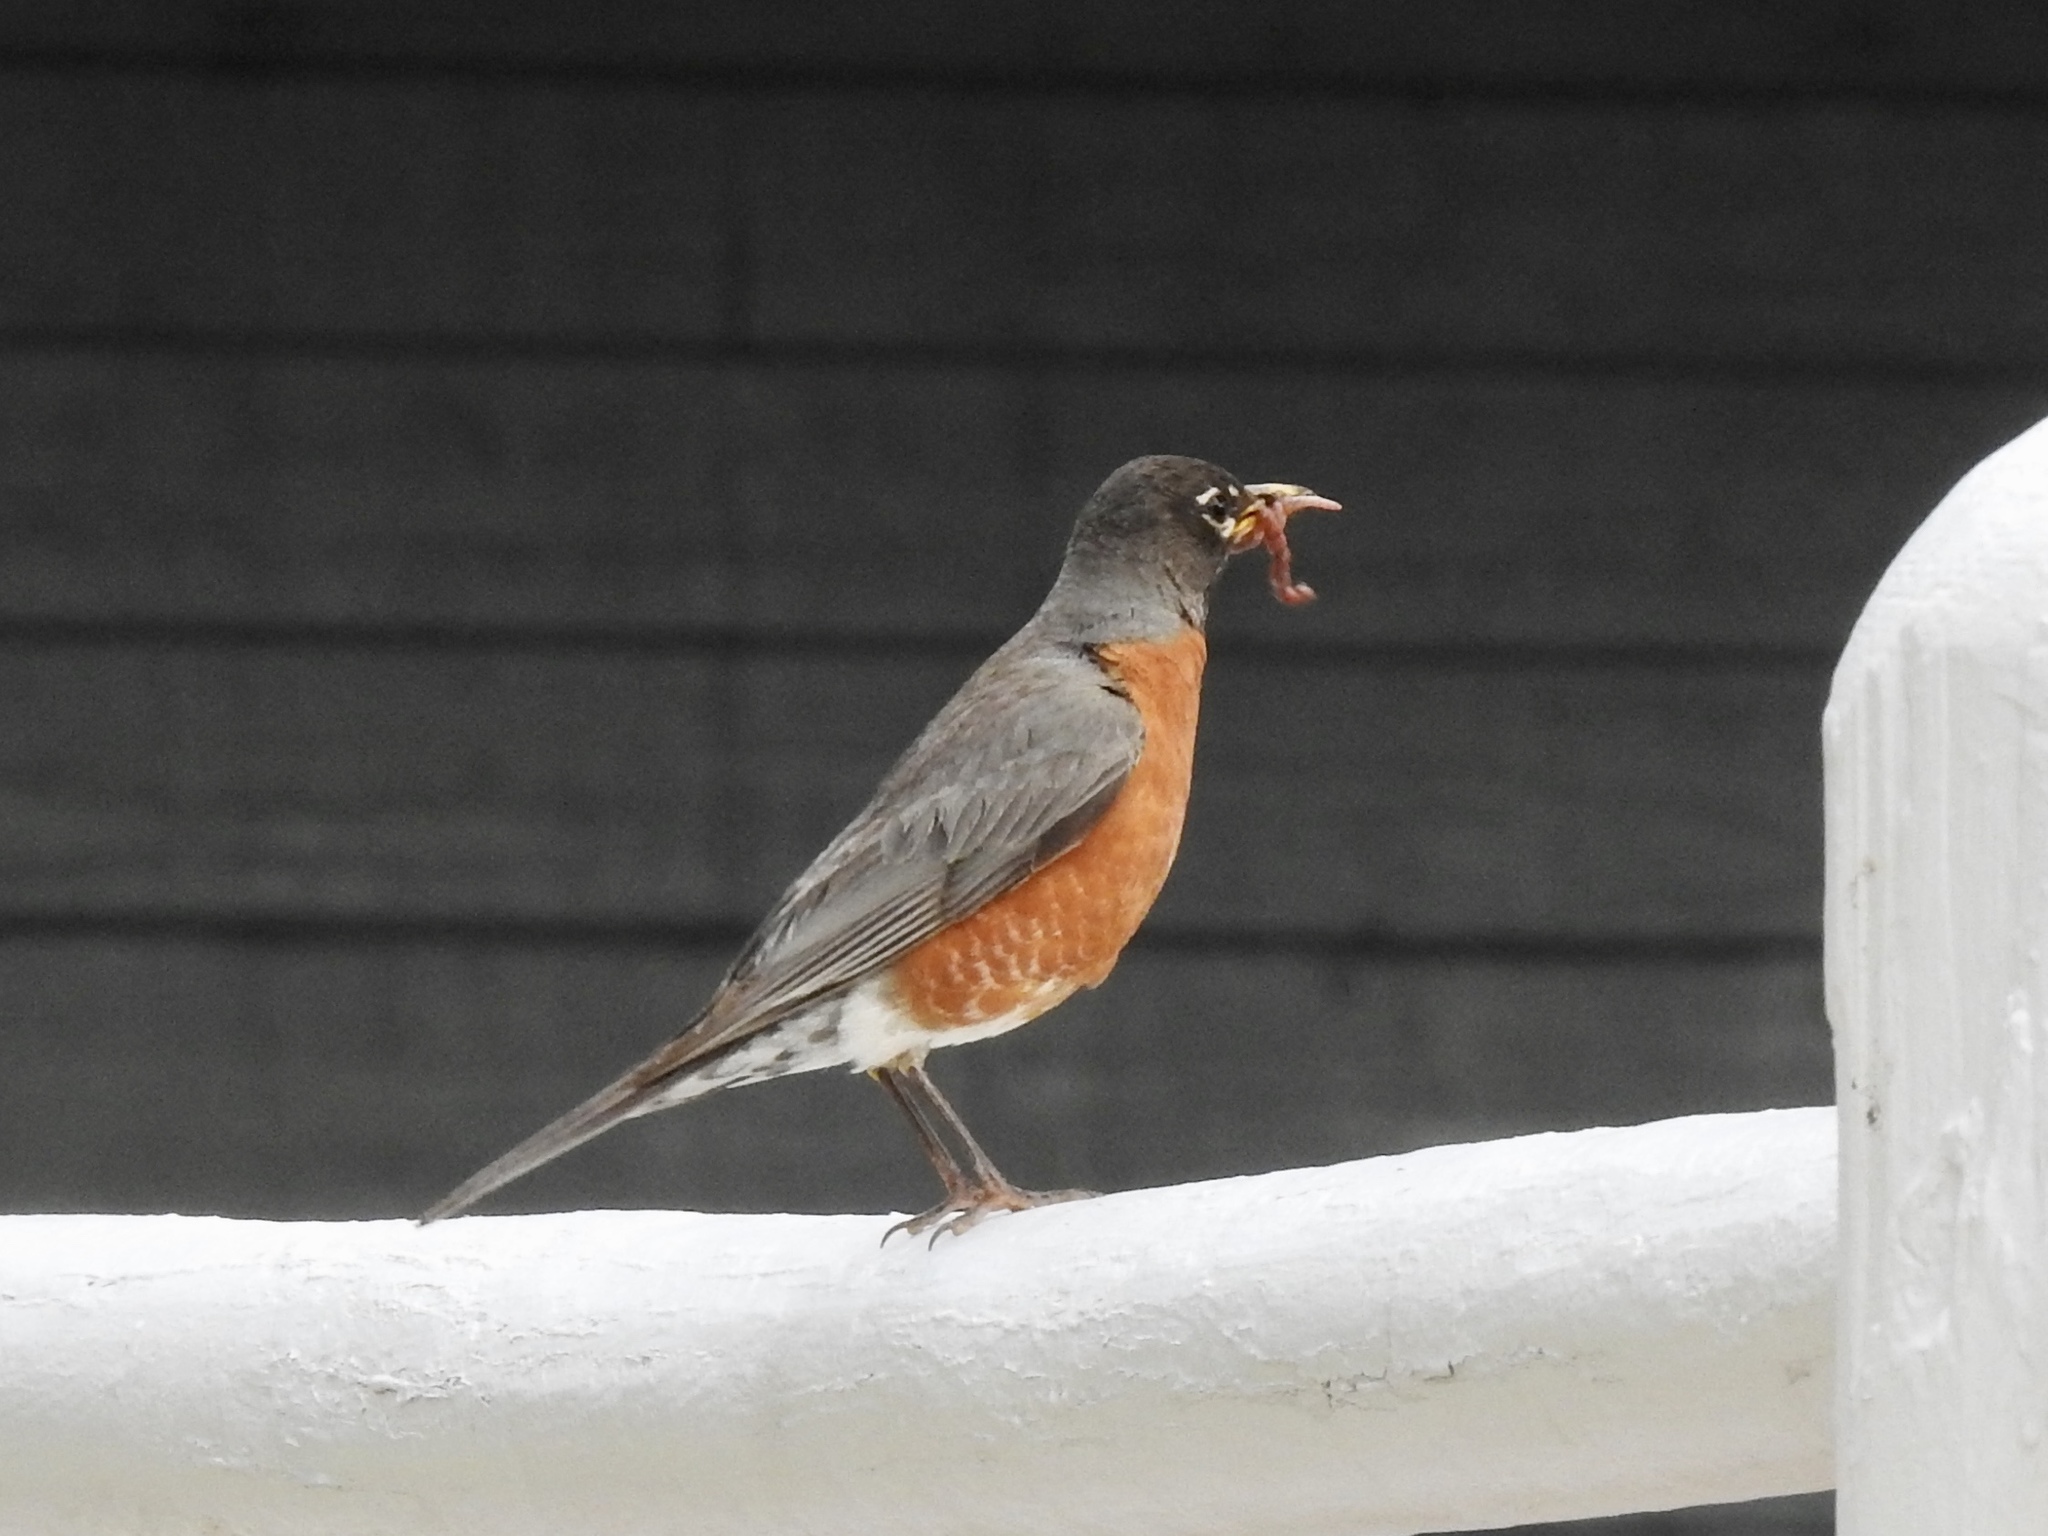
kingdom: Animalia
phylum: Chordata
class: Aves
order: Passeriformes
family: Turdidae
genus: Turdus
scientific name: Turdus migratorius
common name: American robin
